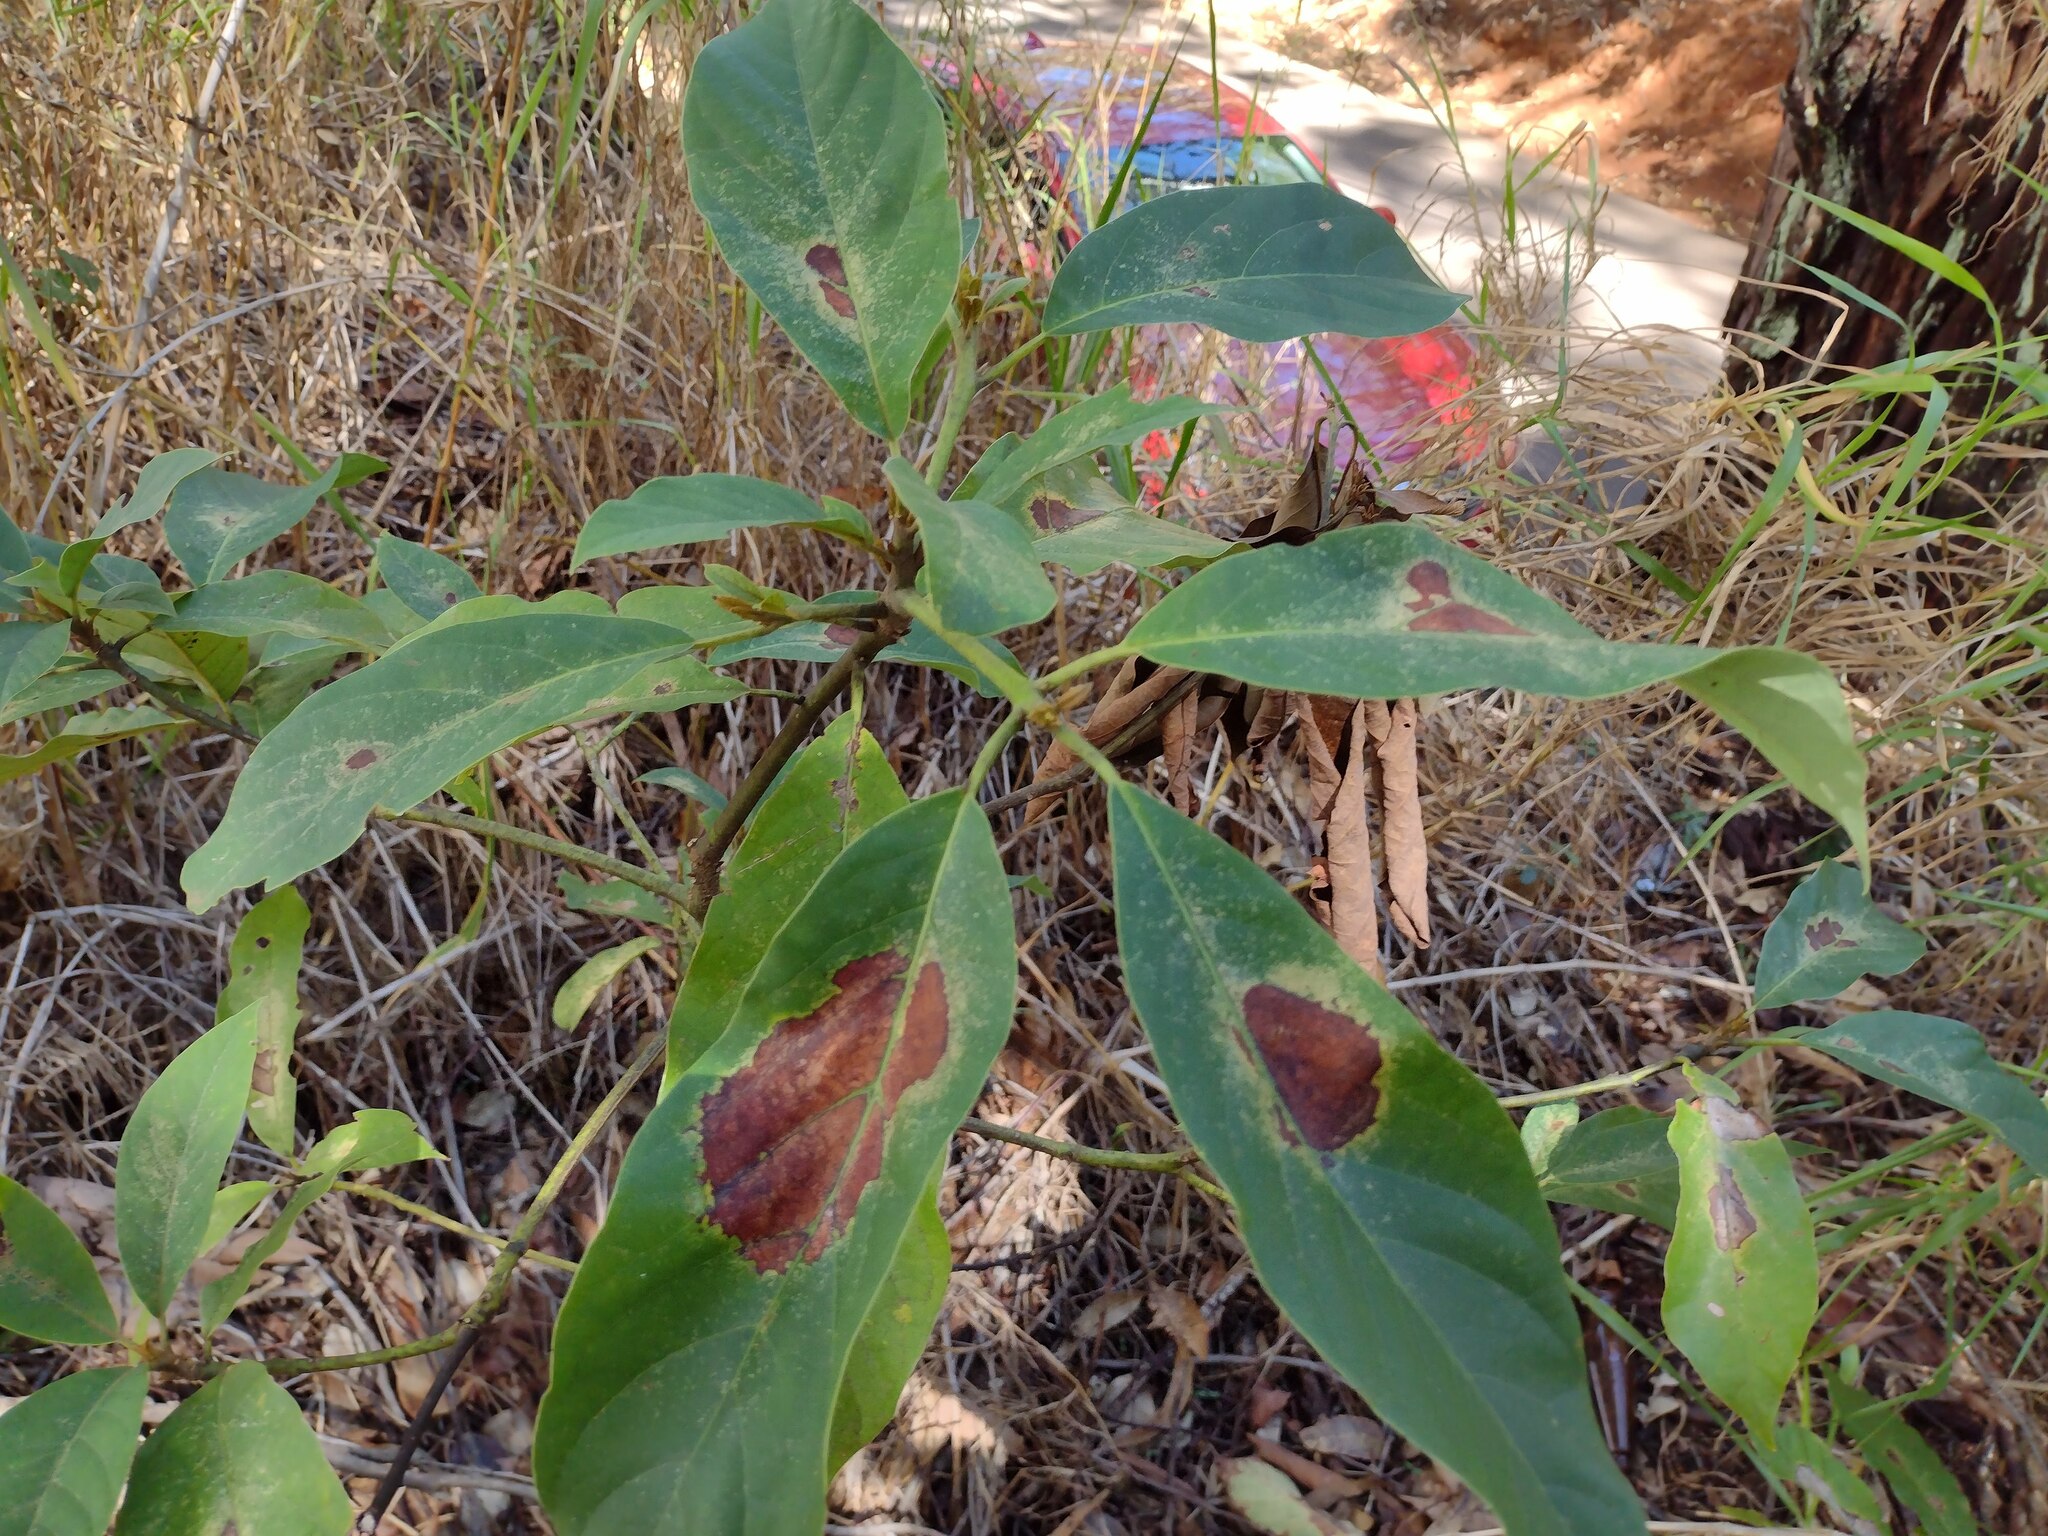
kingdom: Plantae
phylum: Tracheophyta
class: Magnoliopsida
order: Laurales
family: Lauraceae
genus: Persea
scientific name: Persea americana
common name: Avocado
